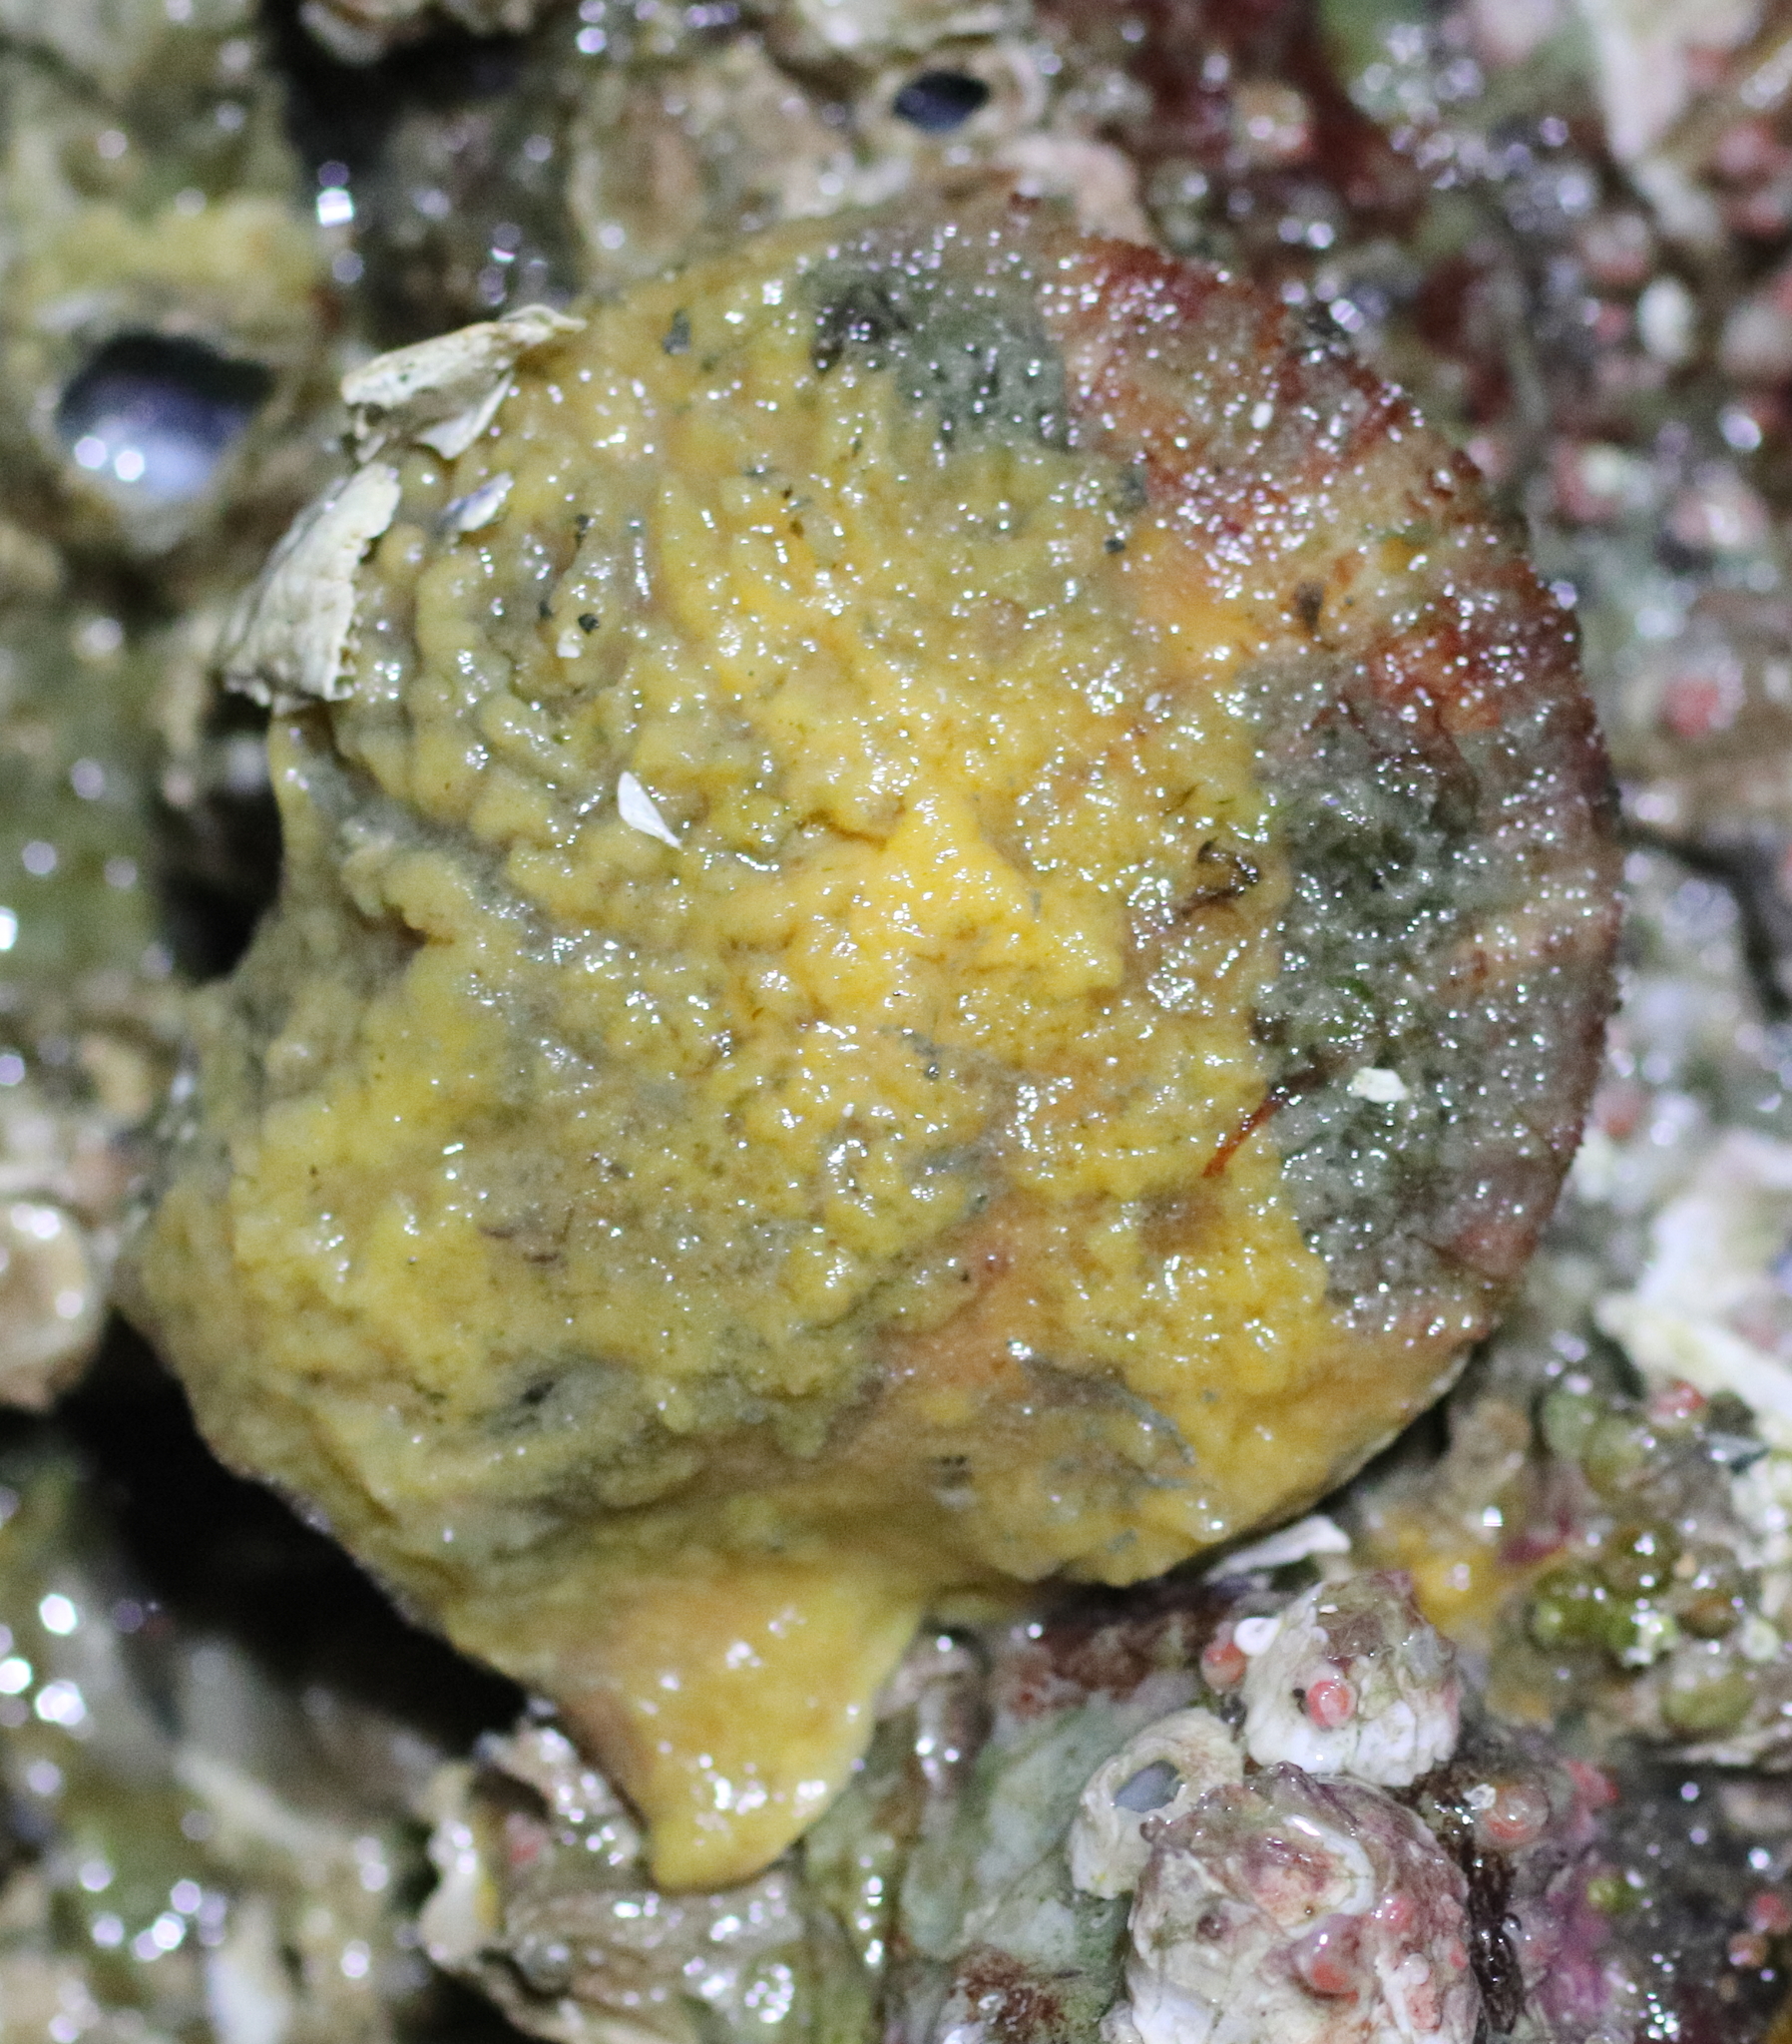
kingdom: Animalia
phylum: Porifera
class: Demospongiae
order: Poecilosclerida
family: Myxillidae
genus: Myxilla
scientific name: Myxilla incrustans
